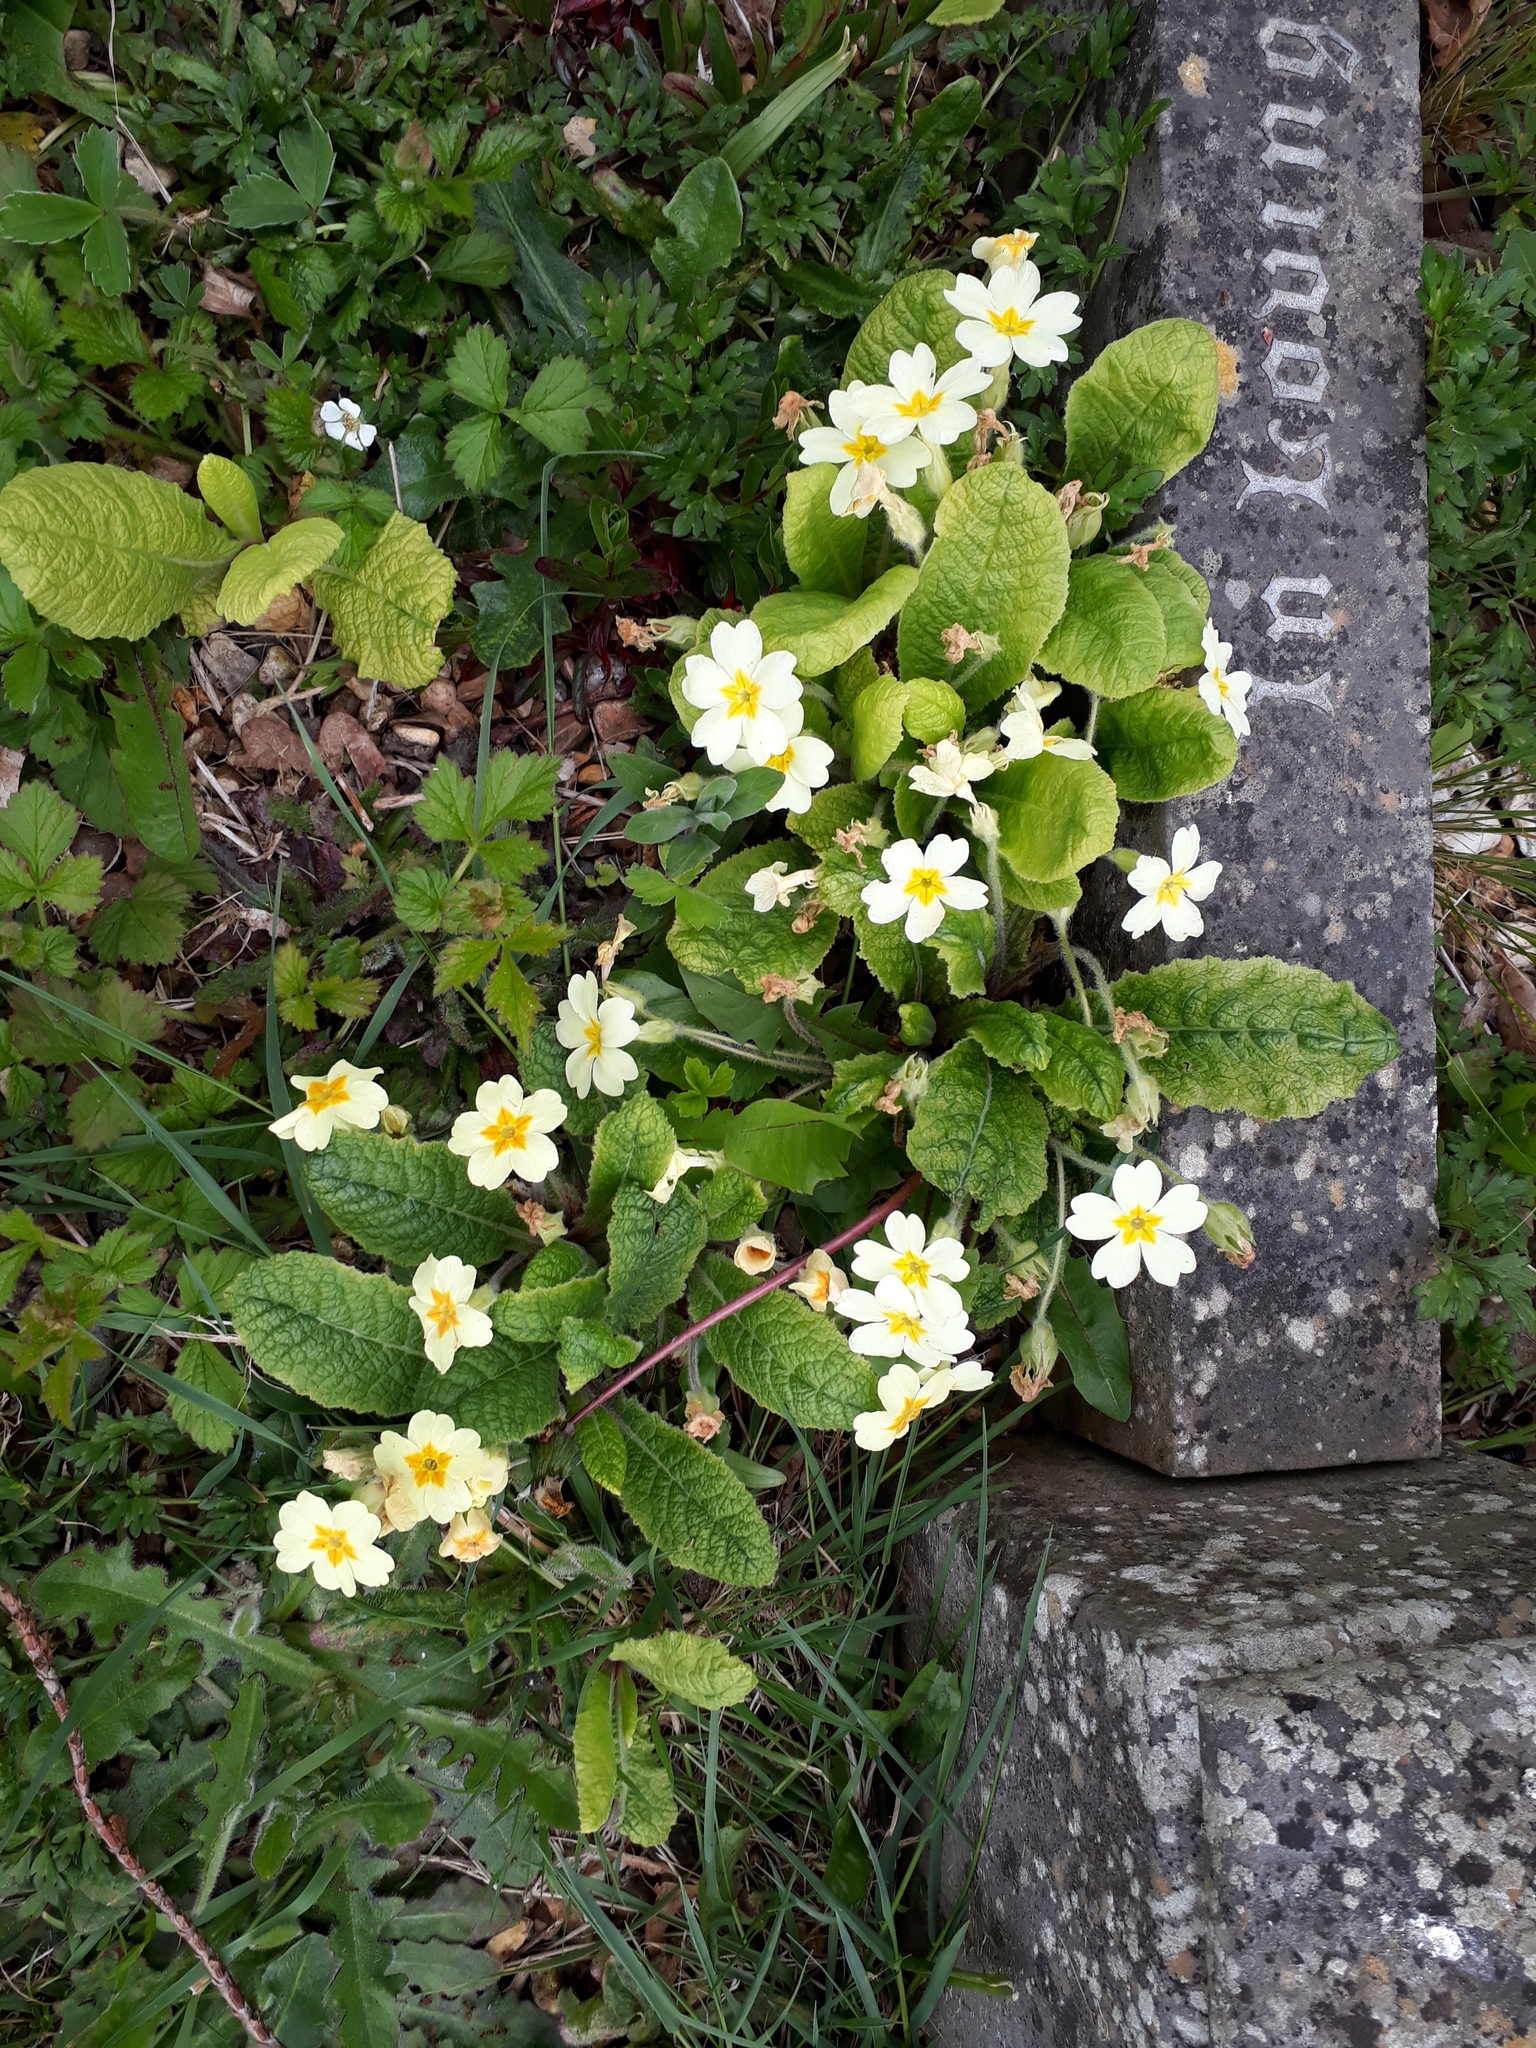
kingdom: Plantae
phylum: Tracheophyta
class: Magnoliopsida
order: Ericales
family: Primulaceae
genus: Primula
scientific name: Primula vulgaris
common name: Primrose
